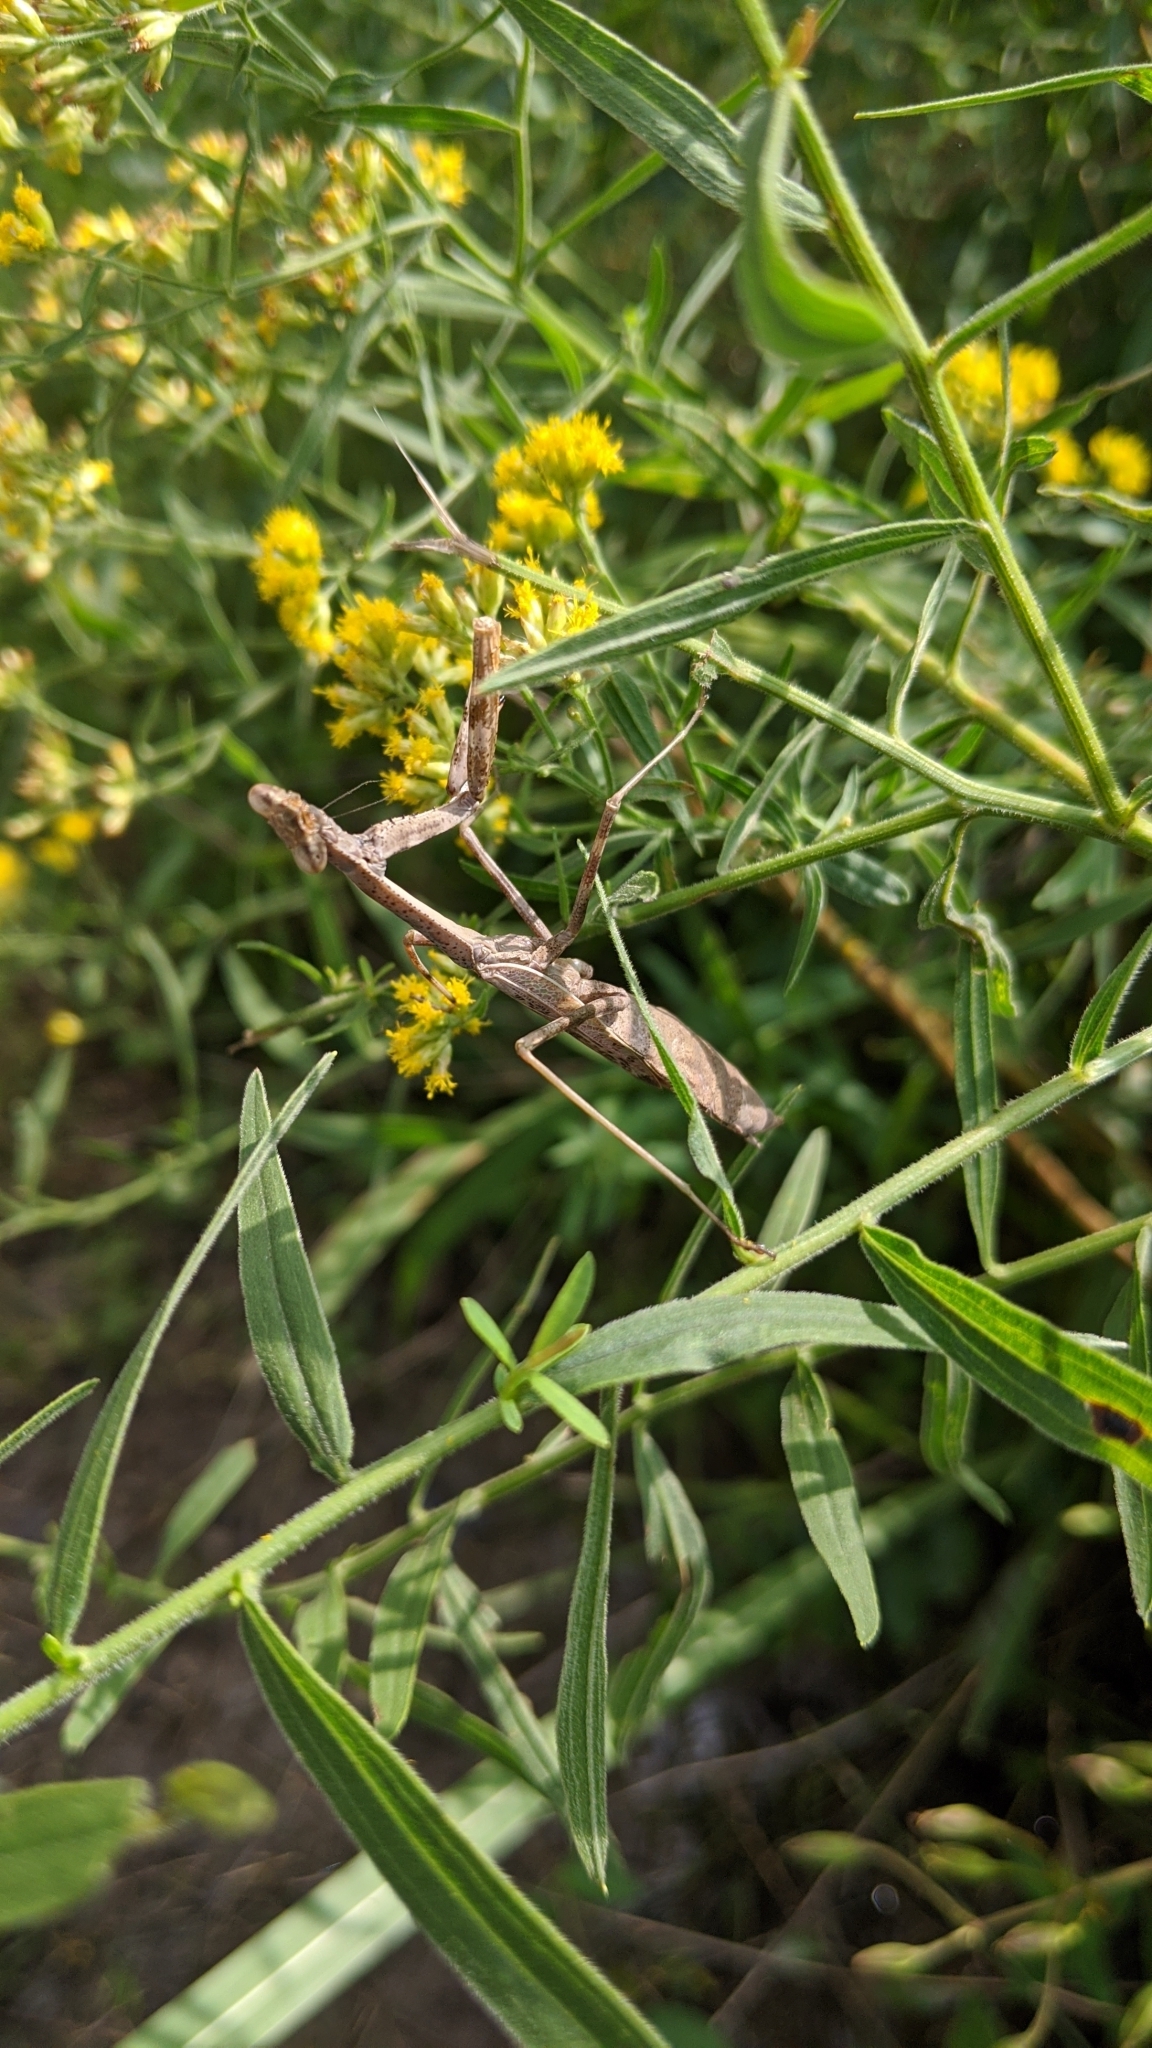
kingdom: Animalia
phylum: Arthropoda
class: Insecta
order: Mantodea
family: Mantidae
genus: Stagmomantis
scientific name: Stagmomantis carolina
